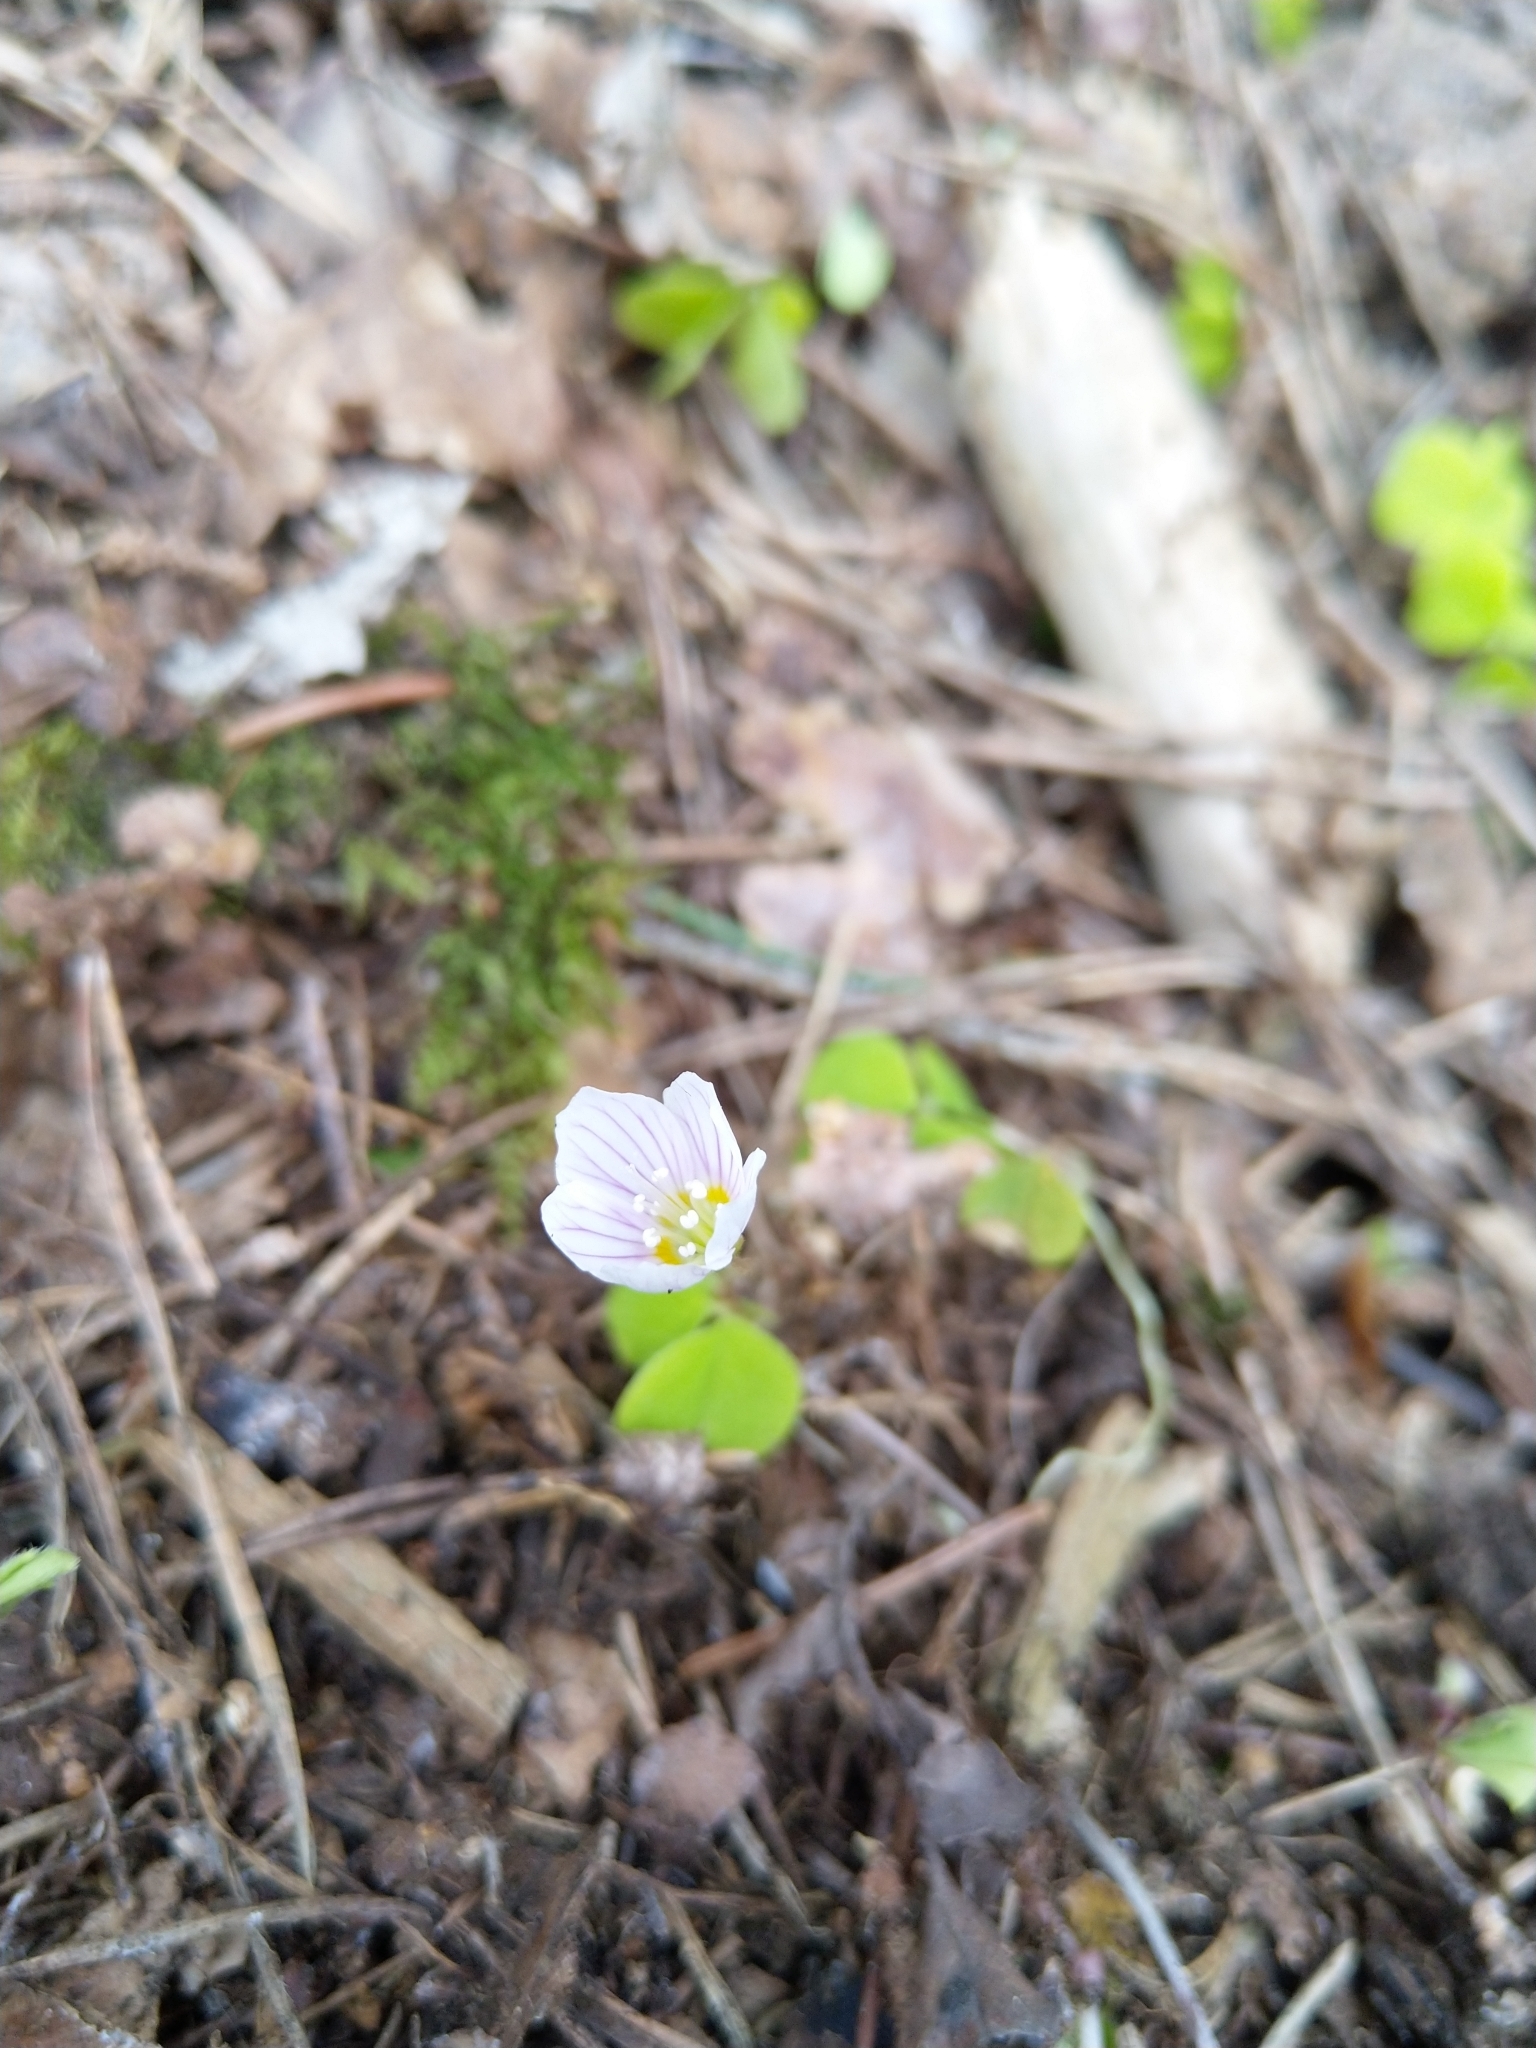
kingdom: Plantae
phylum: Tracheophyta
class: Magnoliopsida
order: Oxalidales
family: Oxalidaceae
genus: Oxalis
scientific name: Oxalis acetosella
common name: Wood-sorrel
